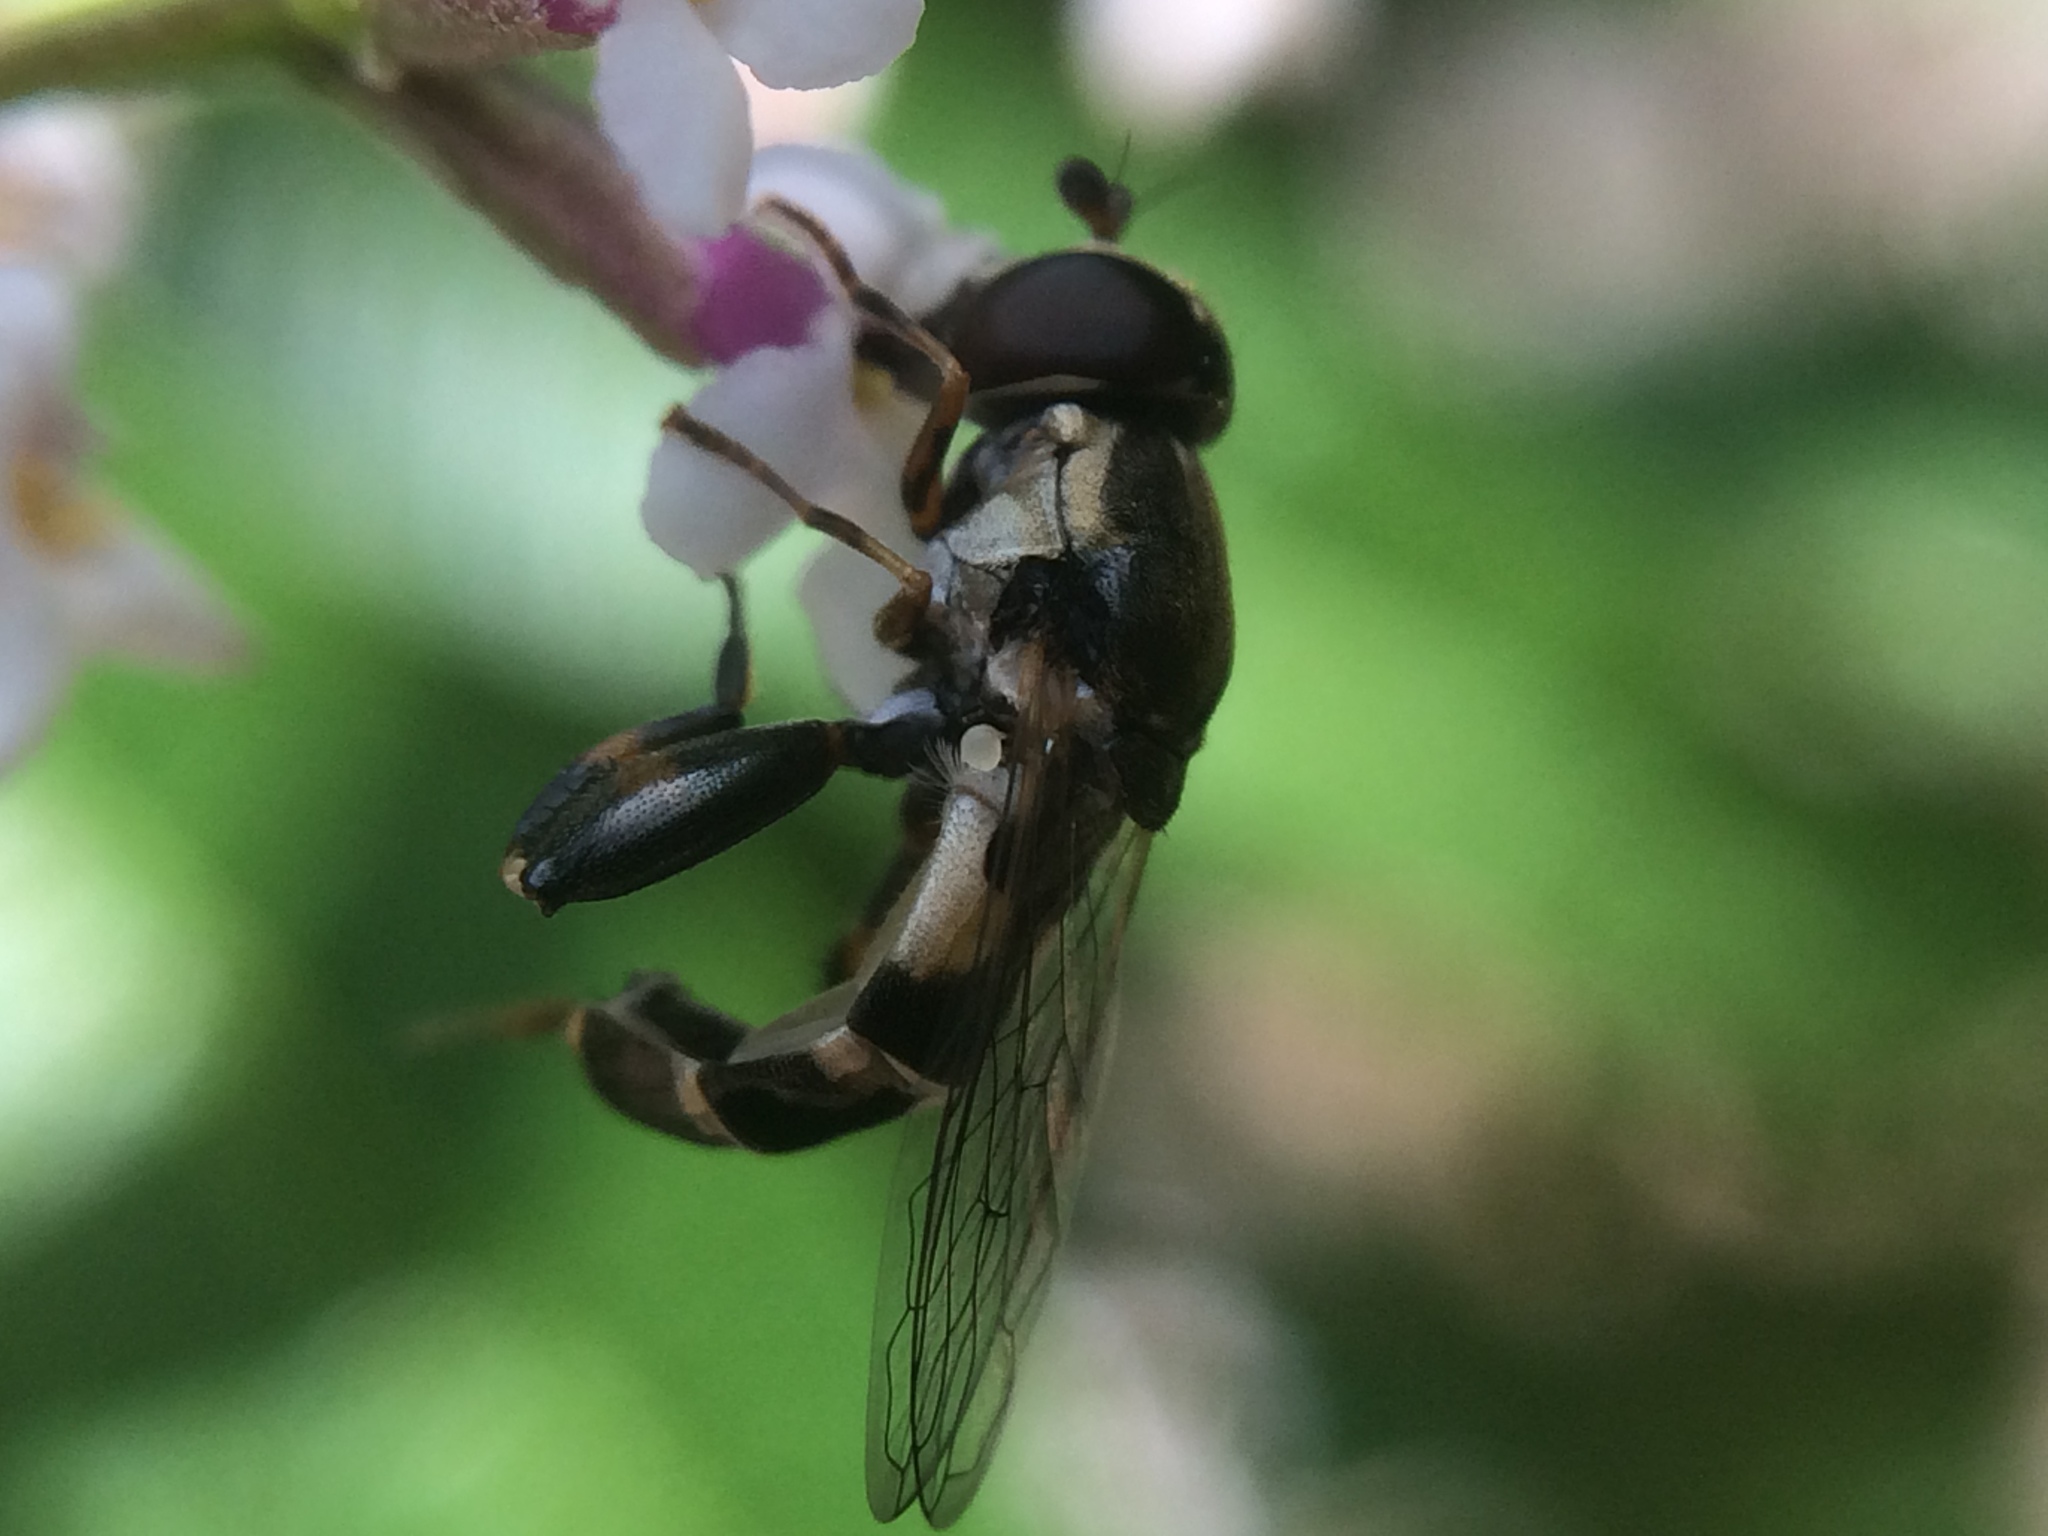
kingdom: Animalia
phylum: Arthropoda
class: Insecta
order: Diptera
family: Syrphidae
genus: Syritta
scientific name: Syritta pipiens
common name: Hover fly
